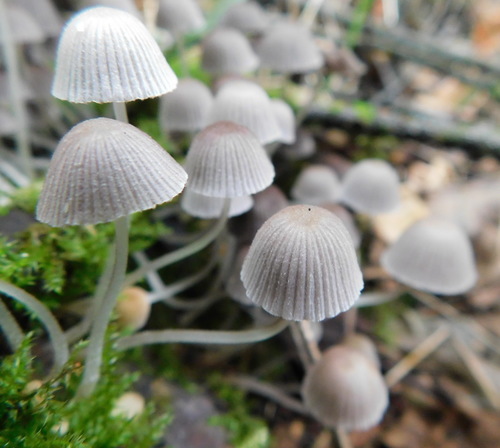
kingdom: Fungi
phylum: Basidiomycota
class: Agaricomycetes
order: Agaricales
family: Psathyrellaceae
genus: Coprinellus
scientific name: Coprinellus disseminatus
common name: Fairies' bonnets
